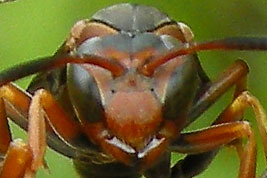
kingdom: Animalia
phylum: Arthropoda
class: Insecta
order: Hymenoptera
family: Eumenidae
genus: Polistes
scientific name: Polistes fuscatus
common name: Dark paper wasp
